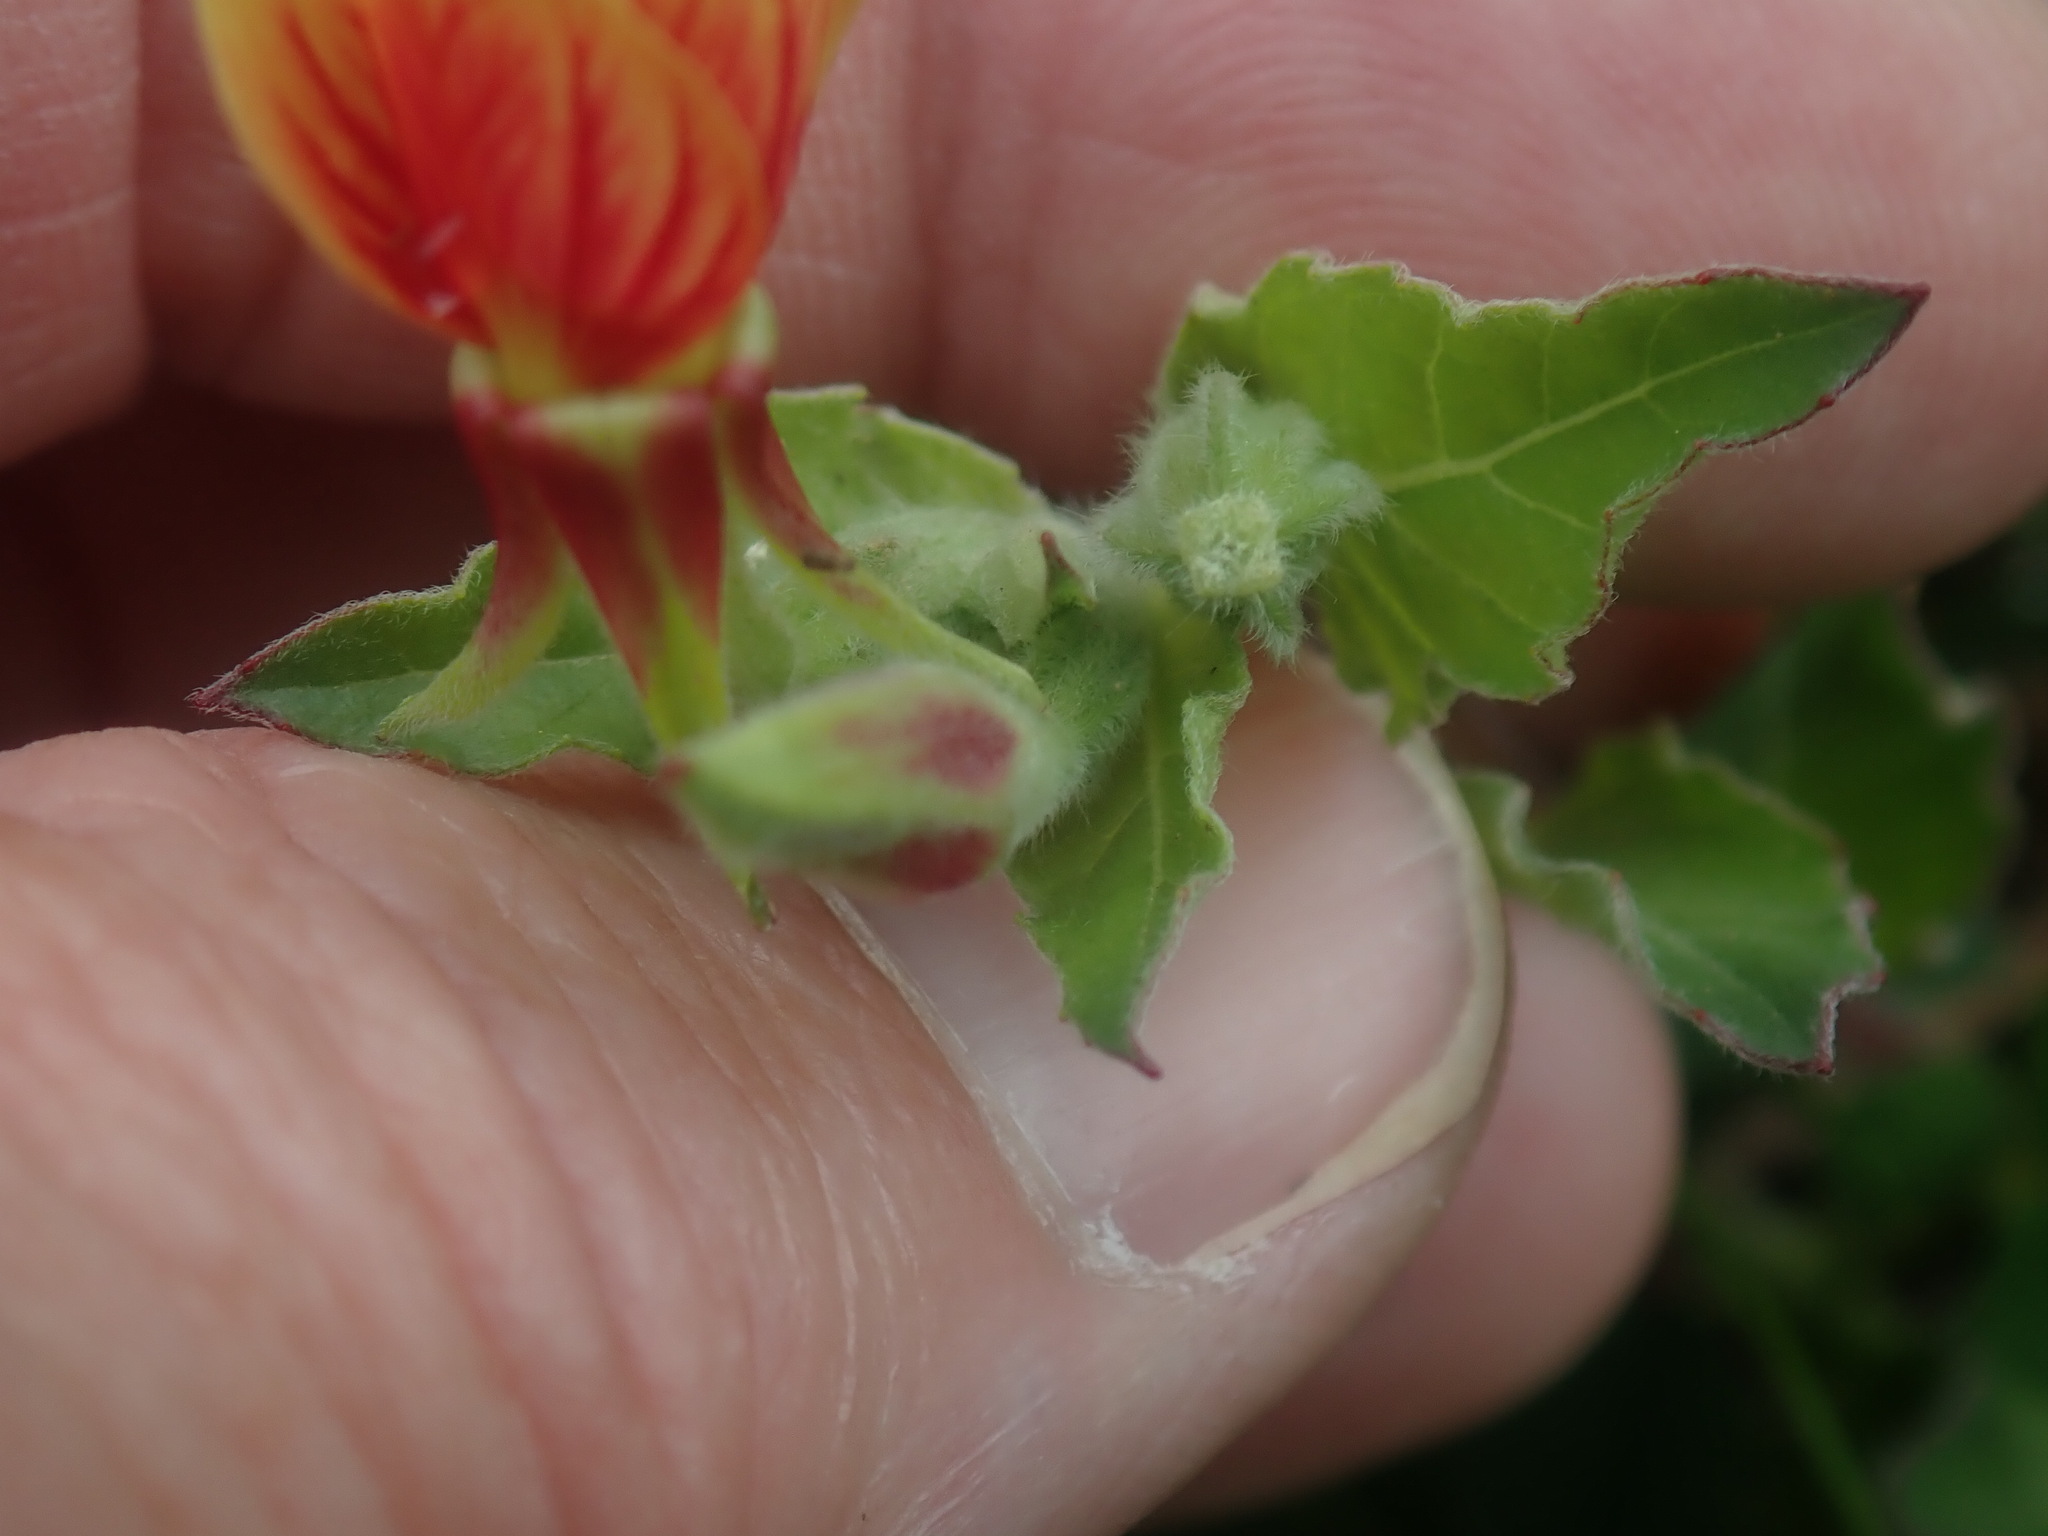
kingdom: Plantae
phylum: Tracheophyta
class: Magnoliopsida
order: Myrtales
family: Onagraceae
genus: Oenothera
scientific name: Oenothera epilobiifolia
